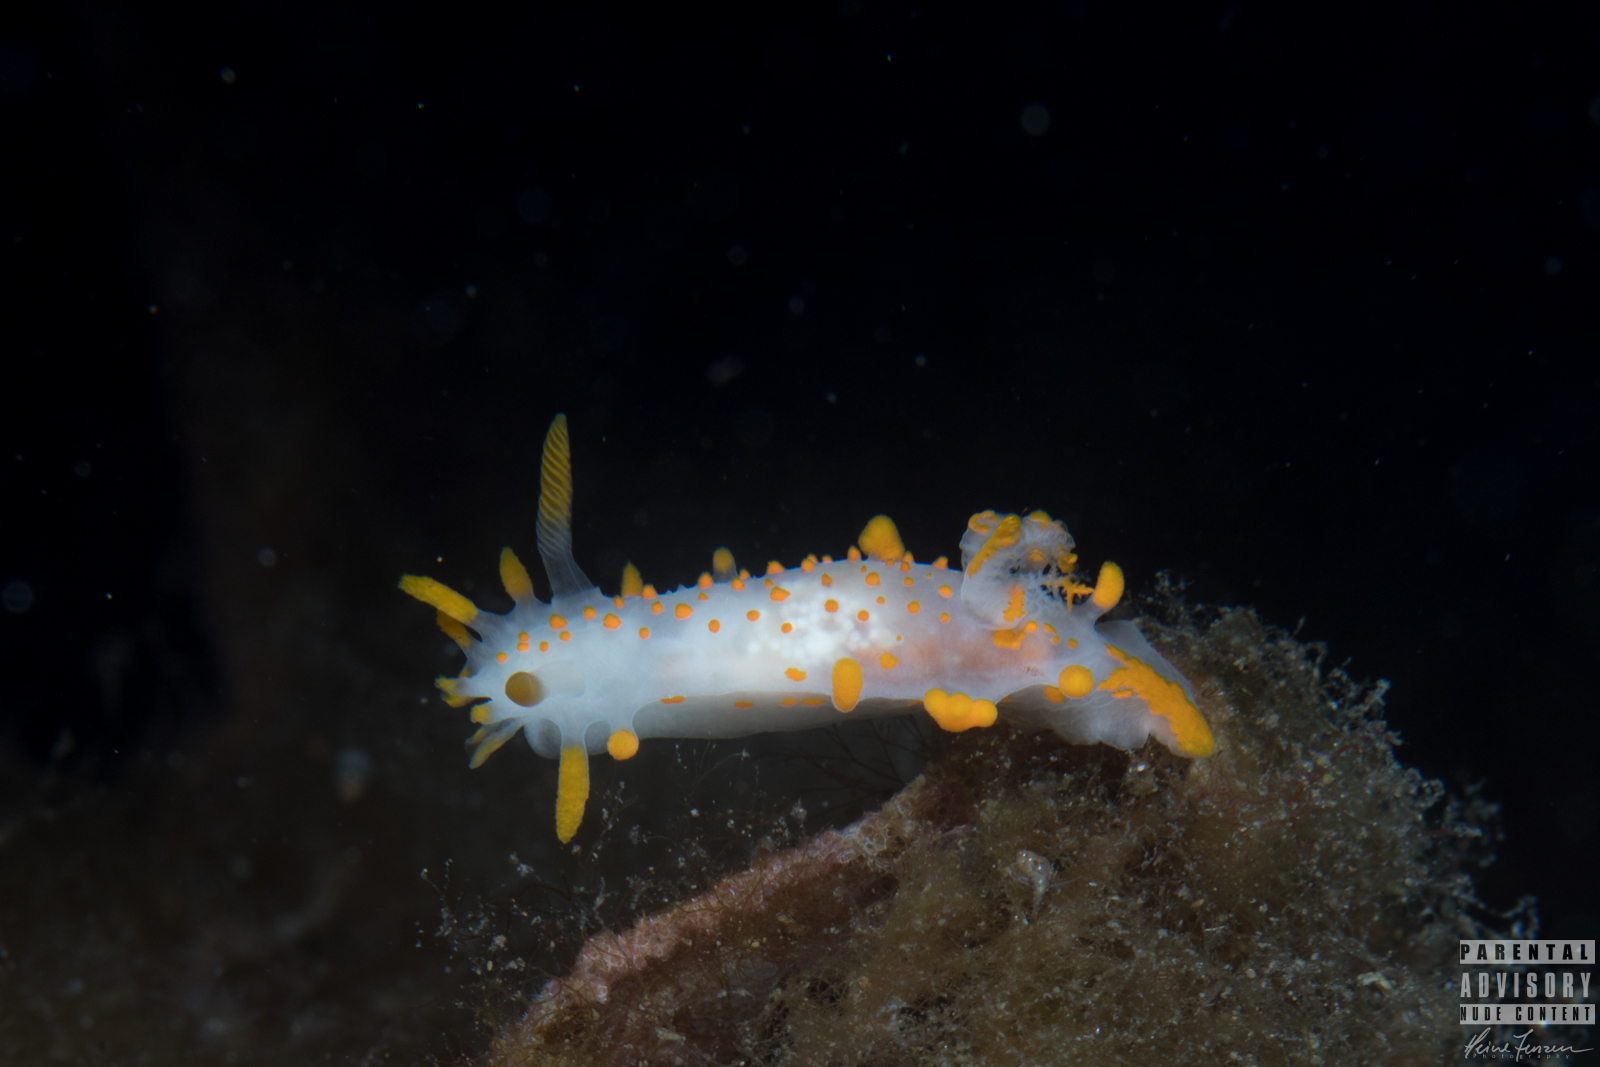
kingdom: Animalia
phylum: Mollusca
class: Gastropoda
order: Nudibranchia
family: Polyceridae
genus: Limacia
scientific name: Limacia clavigera
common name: Orange-clubbed sea slug
